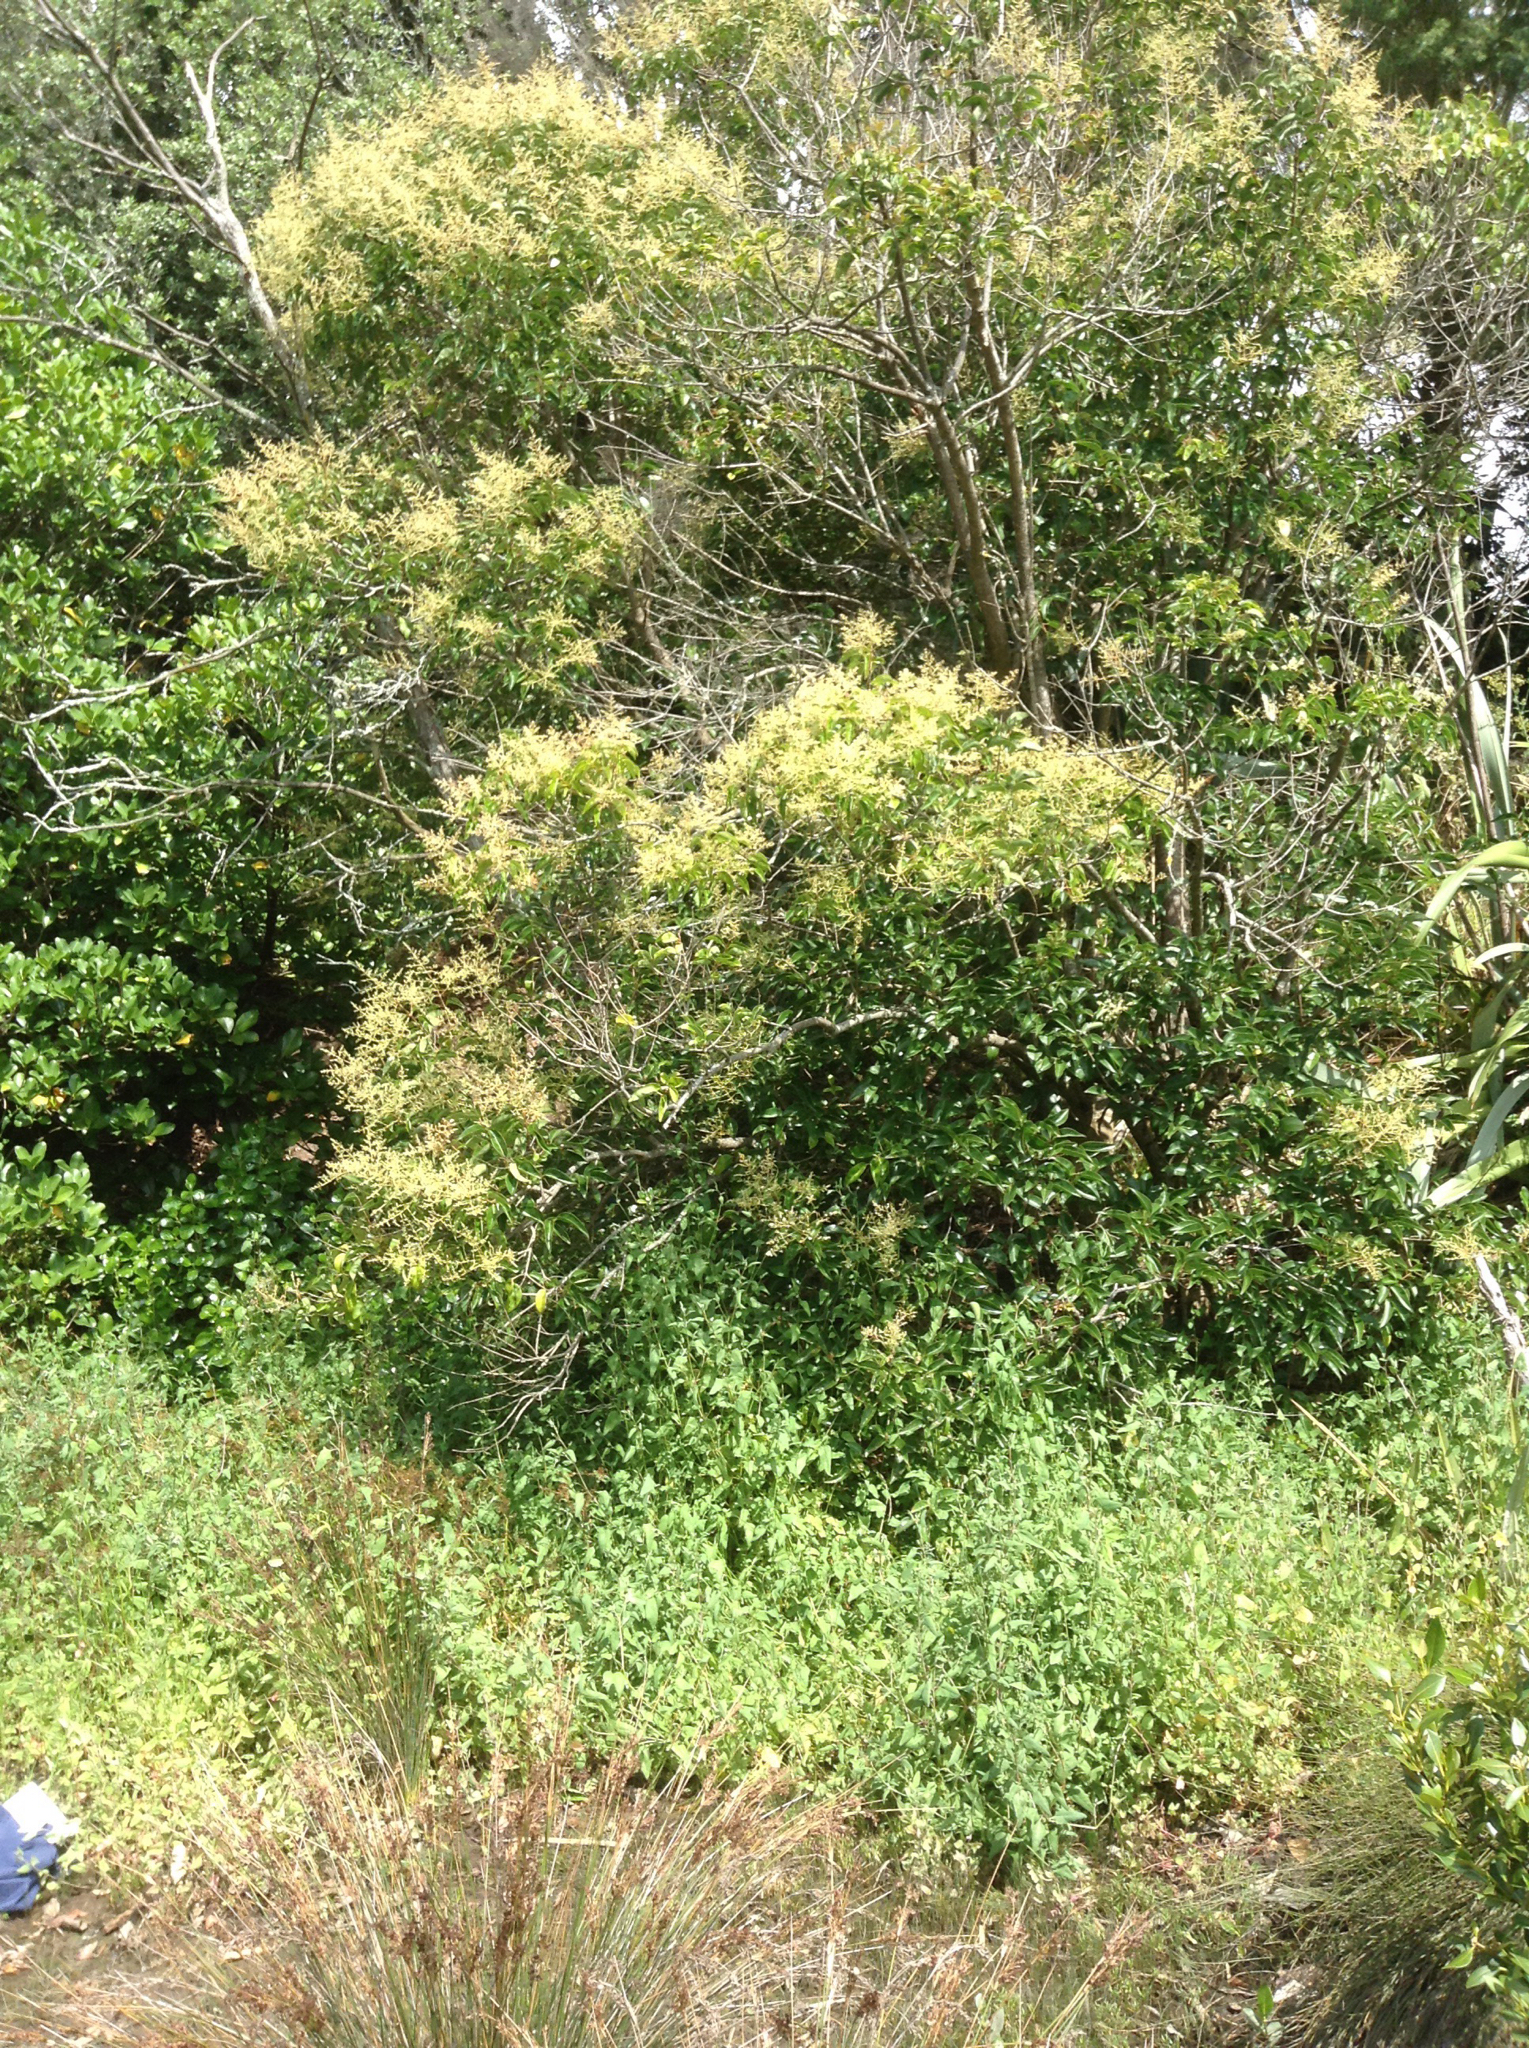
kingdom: Plantae
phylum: Tracheophyta
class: Magnoliopsida
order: Lamiales
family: Oleaceae
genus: Ligustrum
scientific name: Ligustrum lucidum
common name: Glossy privet
